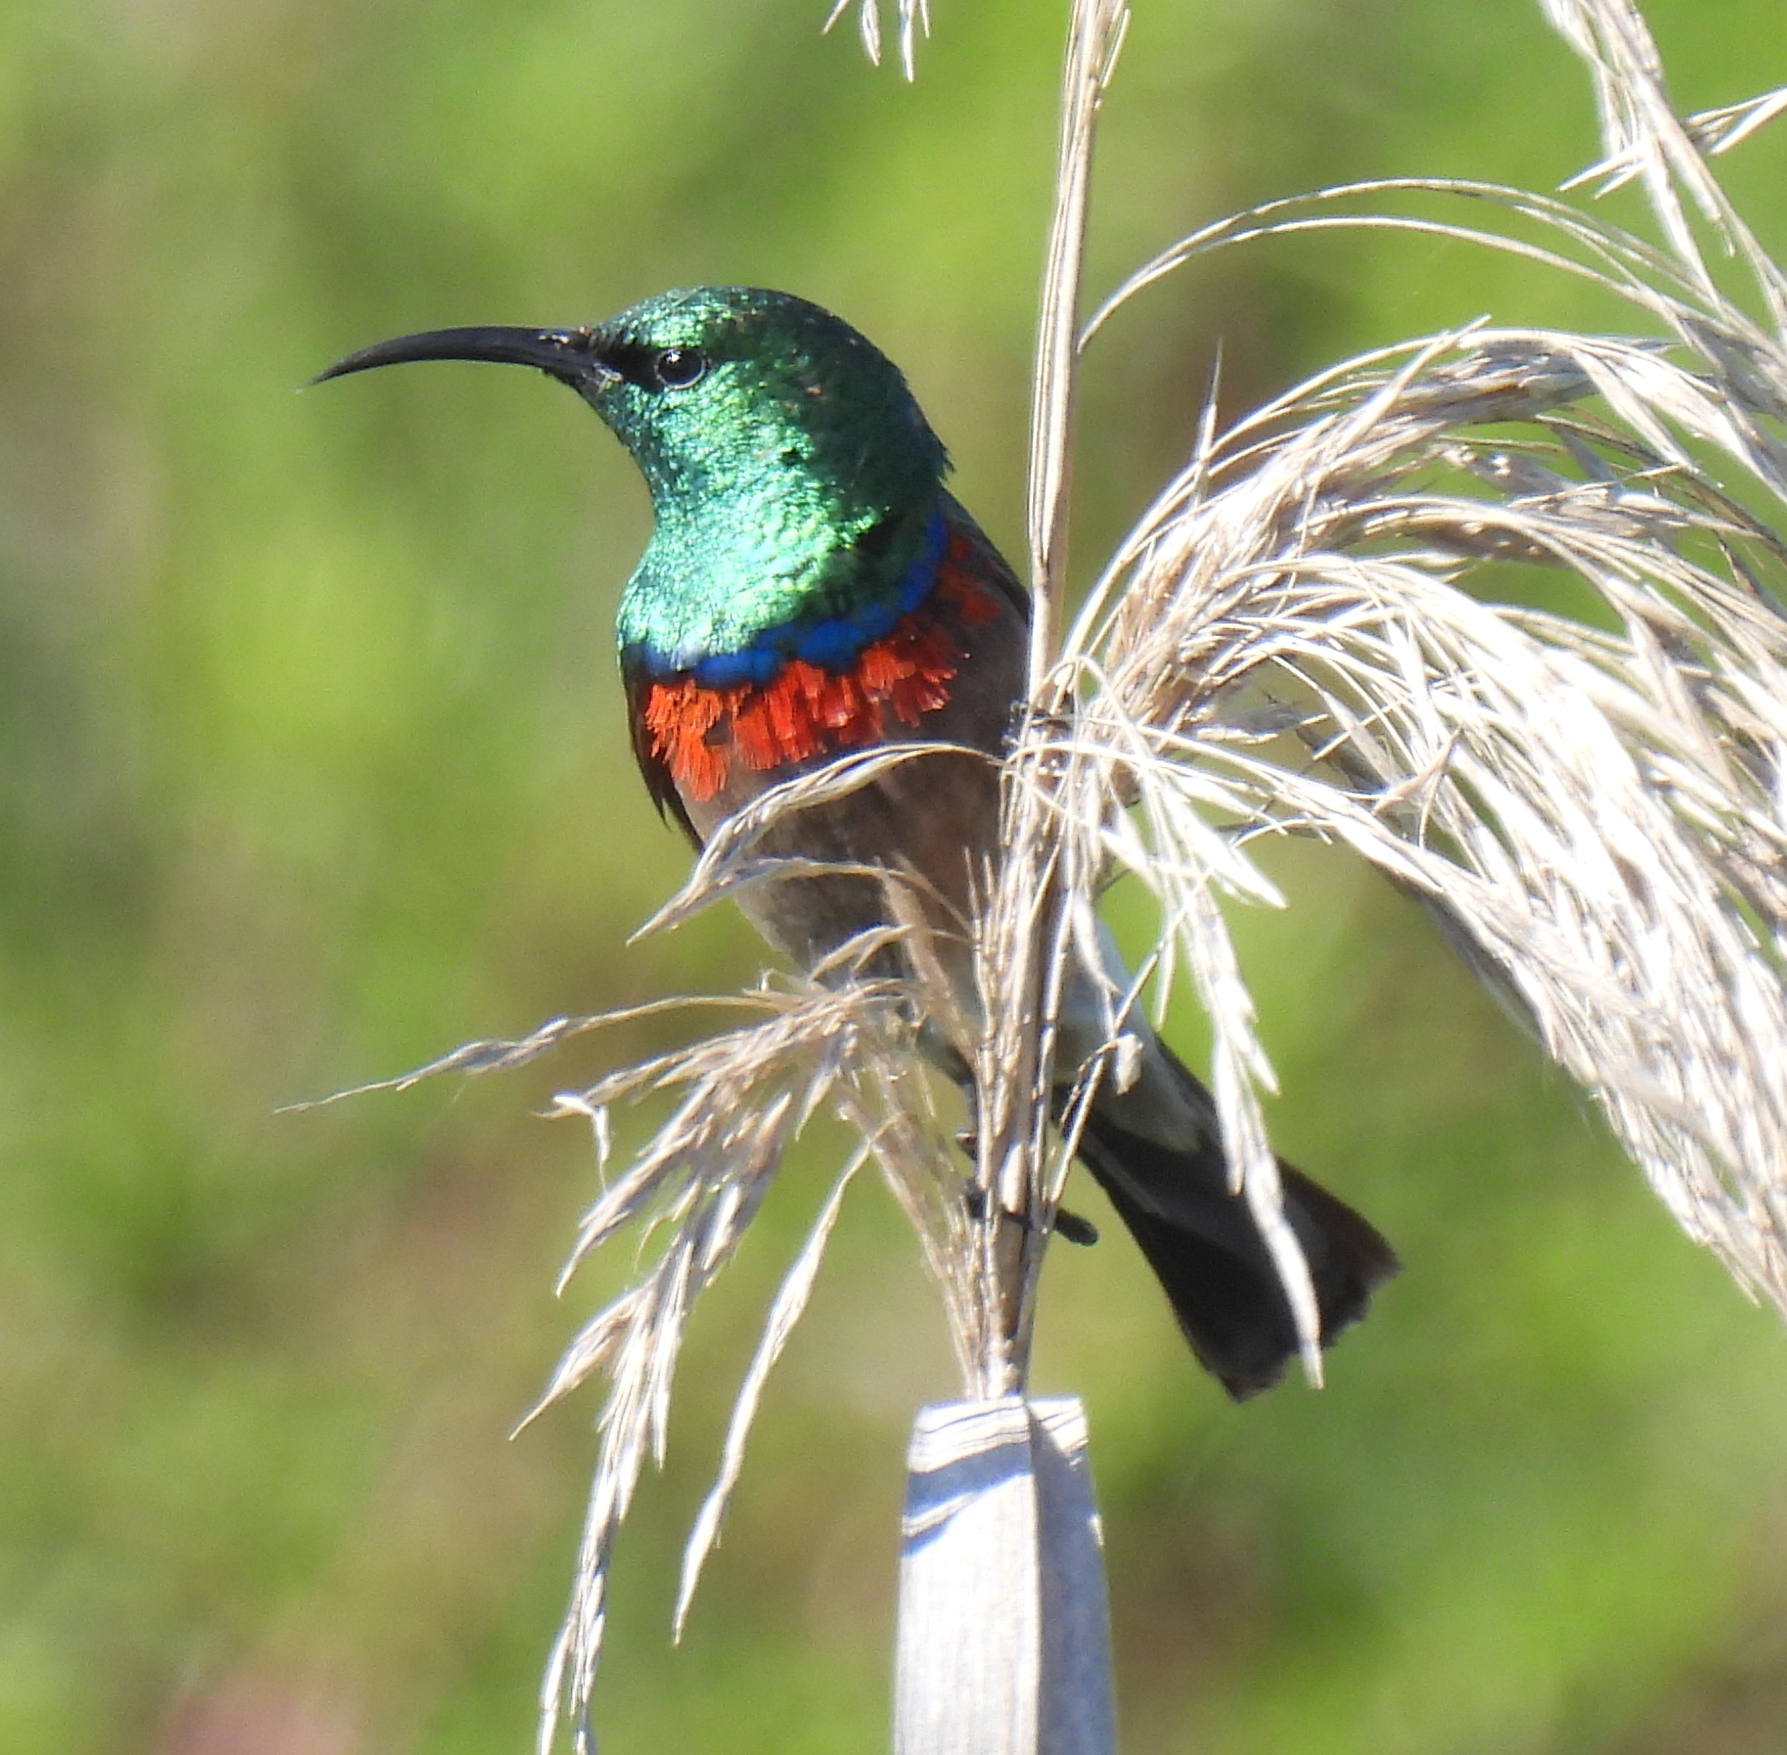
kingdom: Animalia
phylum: Chordata
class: Aves
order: Passeriformes
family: Nectariniidae
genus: Cinnyris
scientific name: Cinnyris chalybeus
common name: Southern double-collared sunbird
